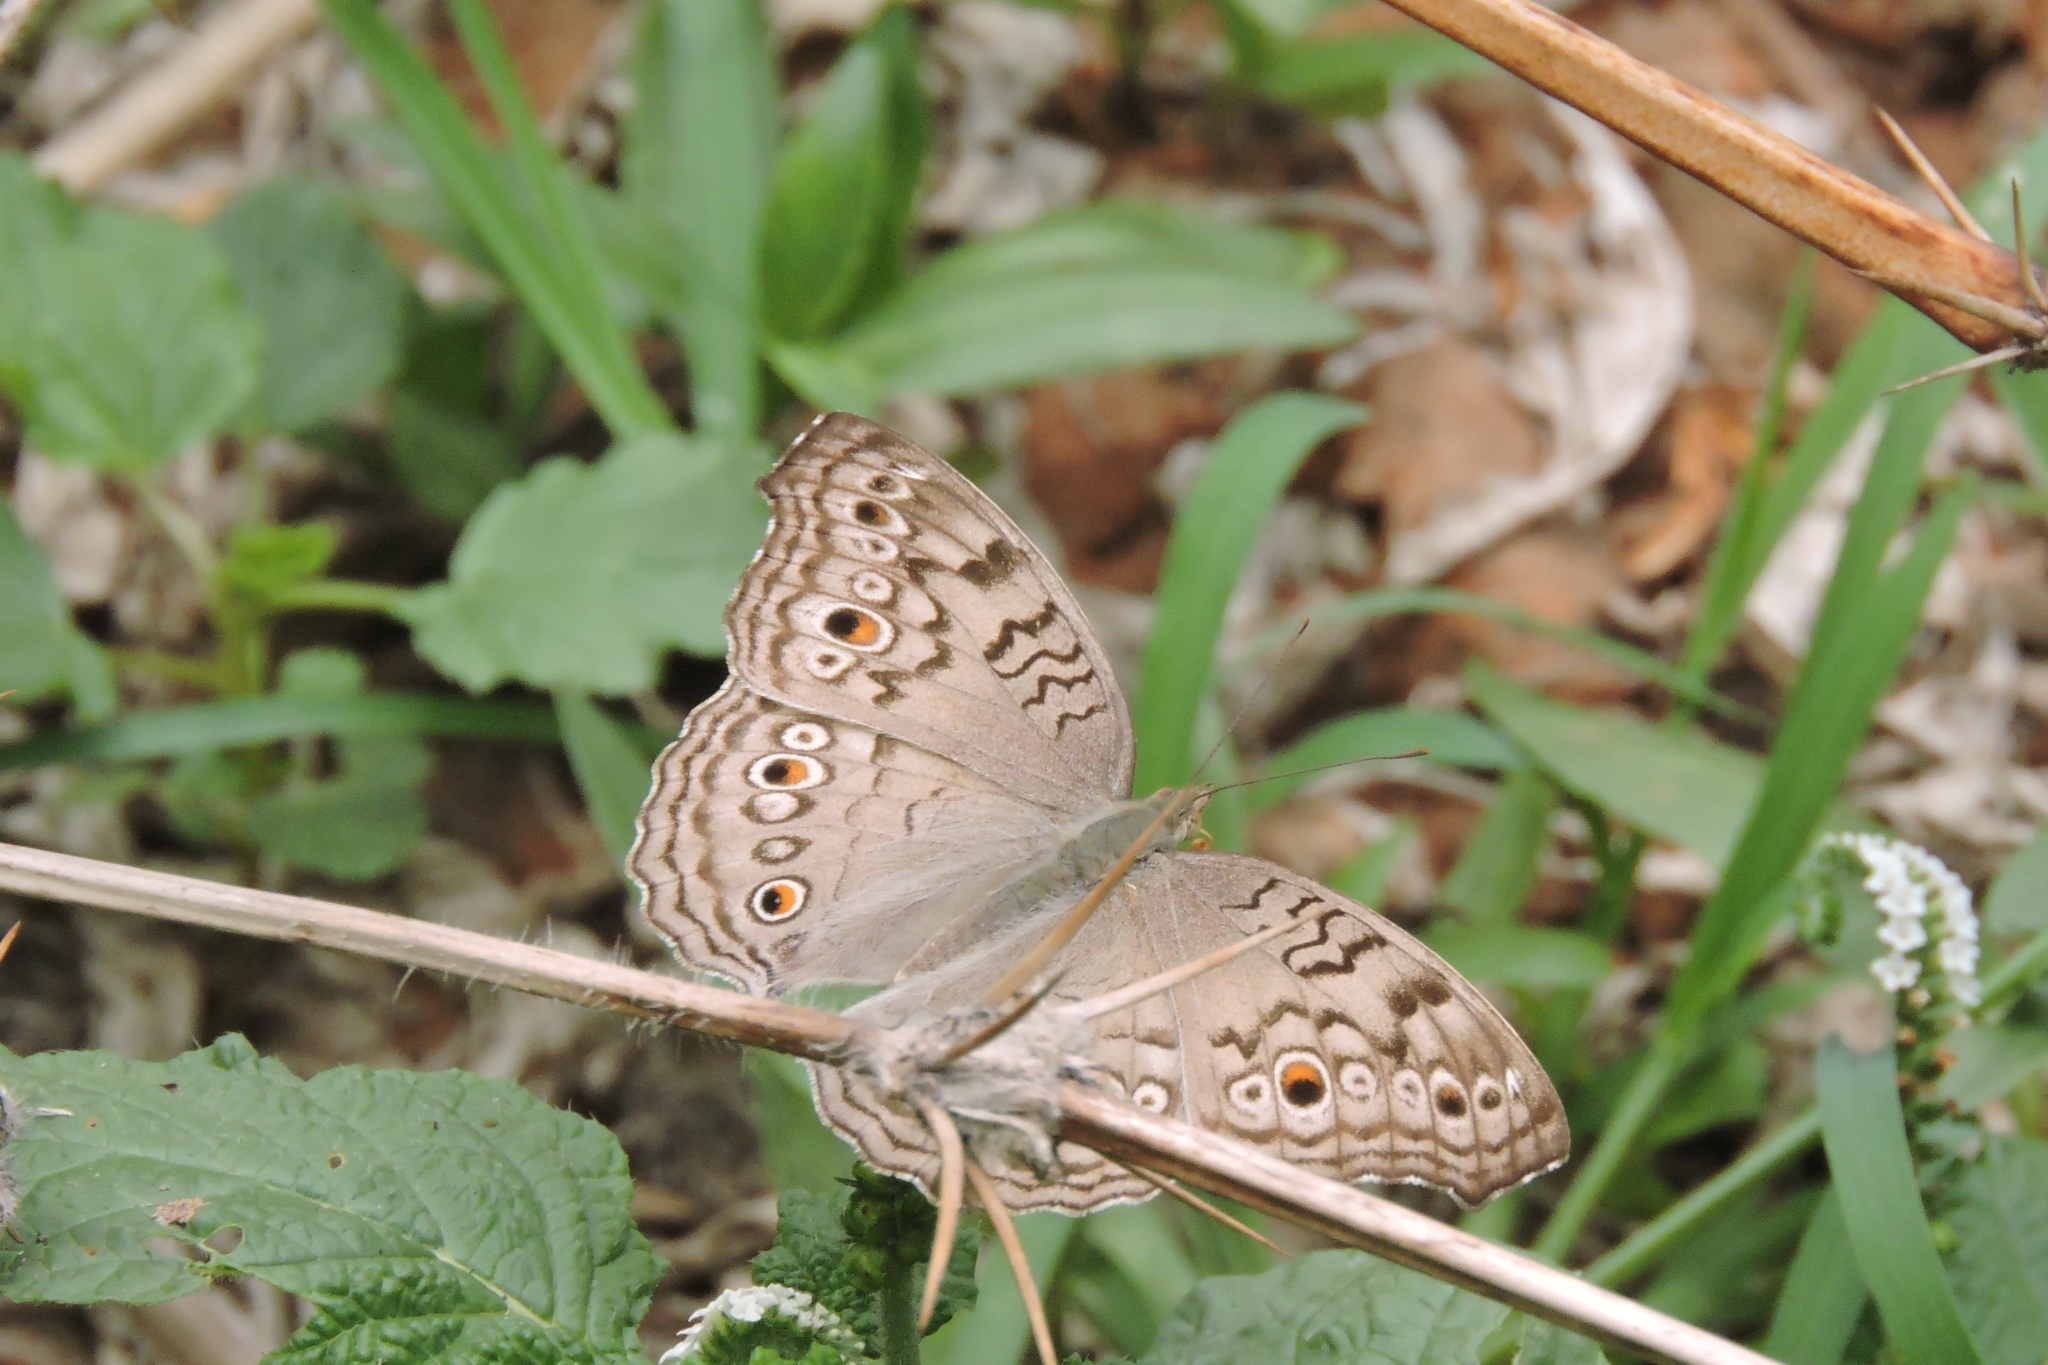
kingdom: Animalia
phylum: Arthropoda
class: Insecta
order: Lepidoptera
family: Nymphalidae
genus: Junonia
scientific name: Junonia atlites
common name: Grey pansy
